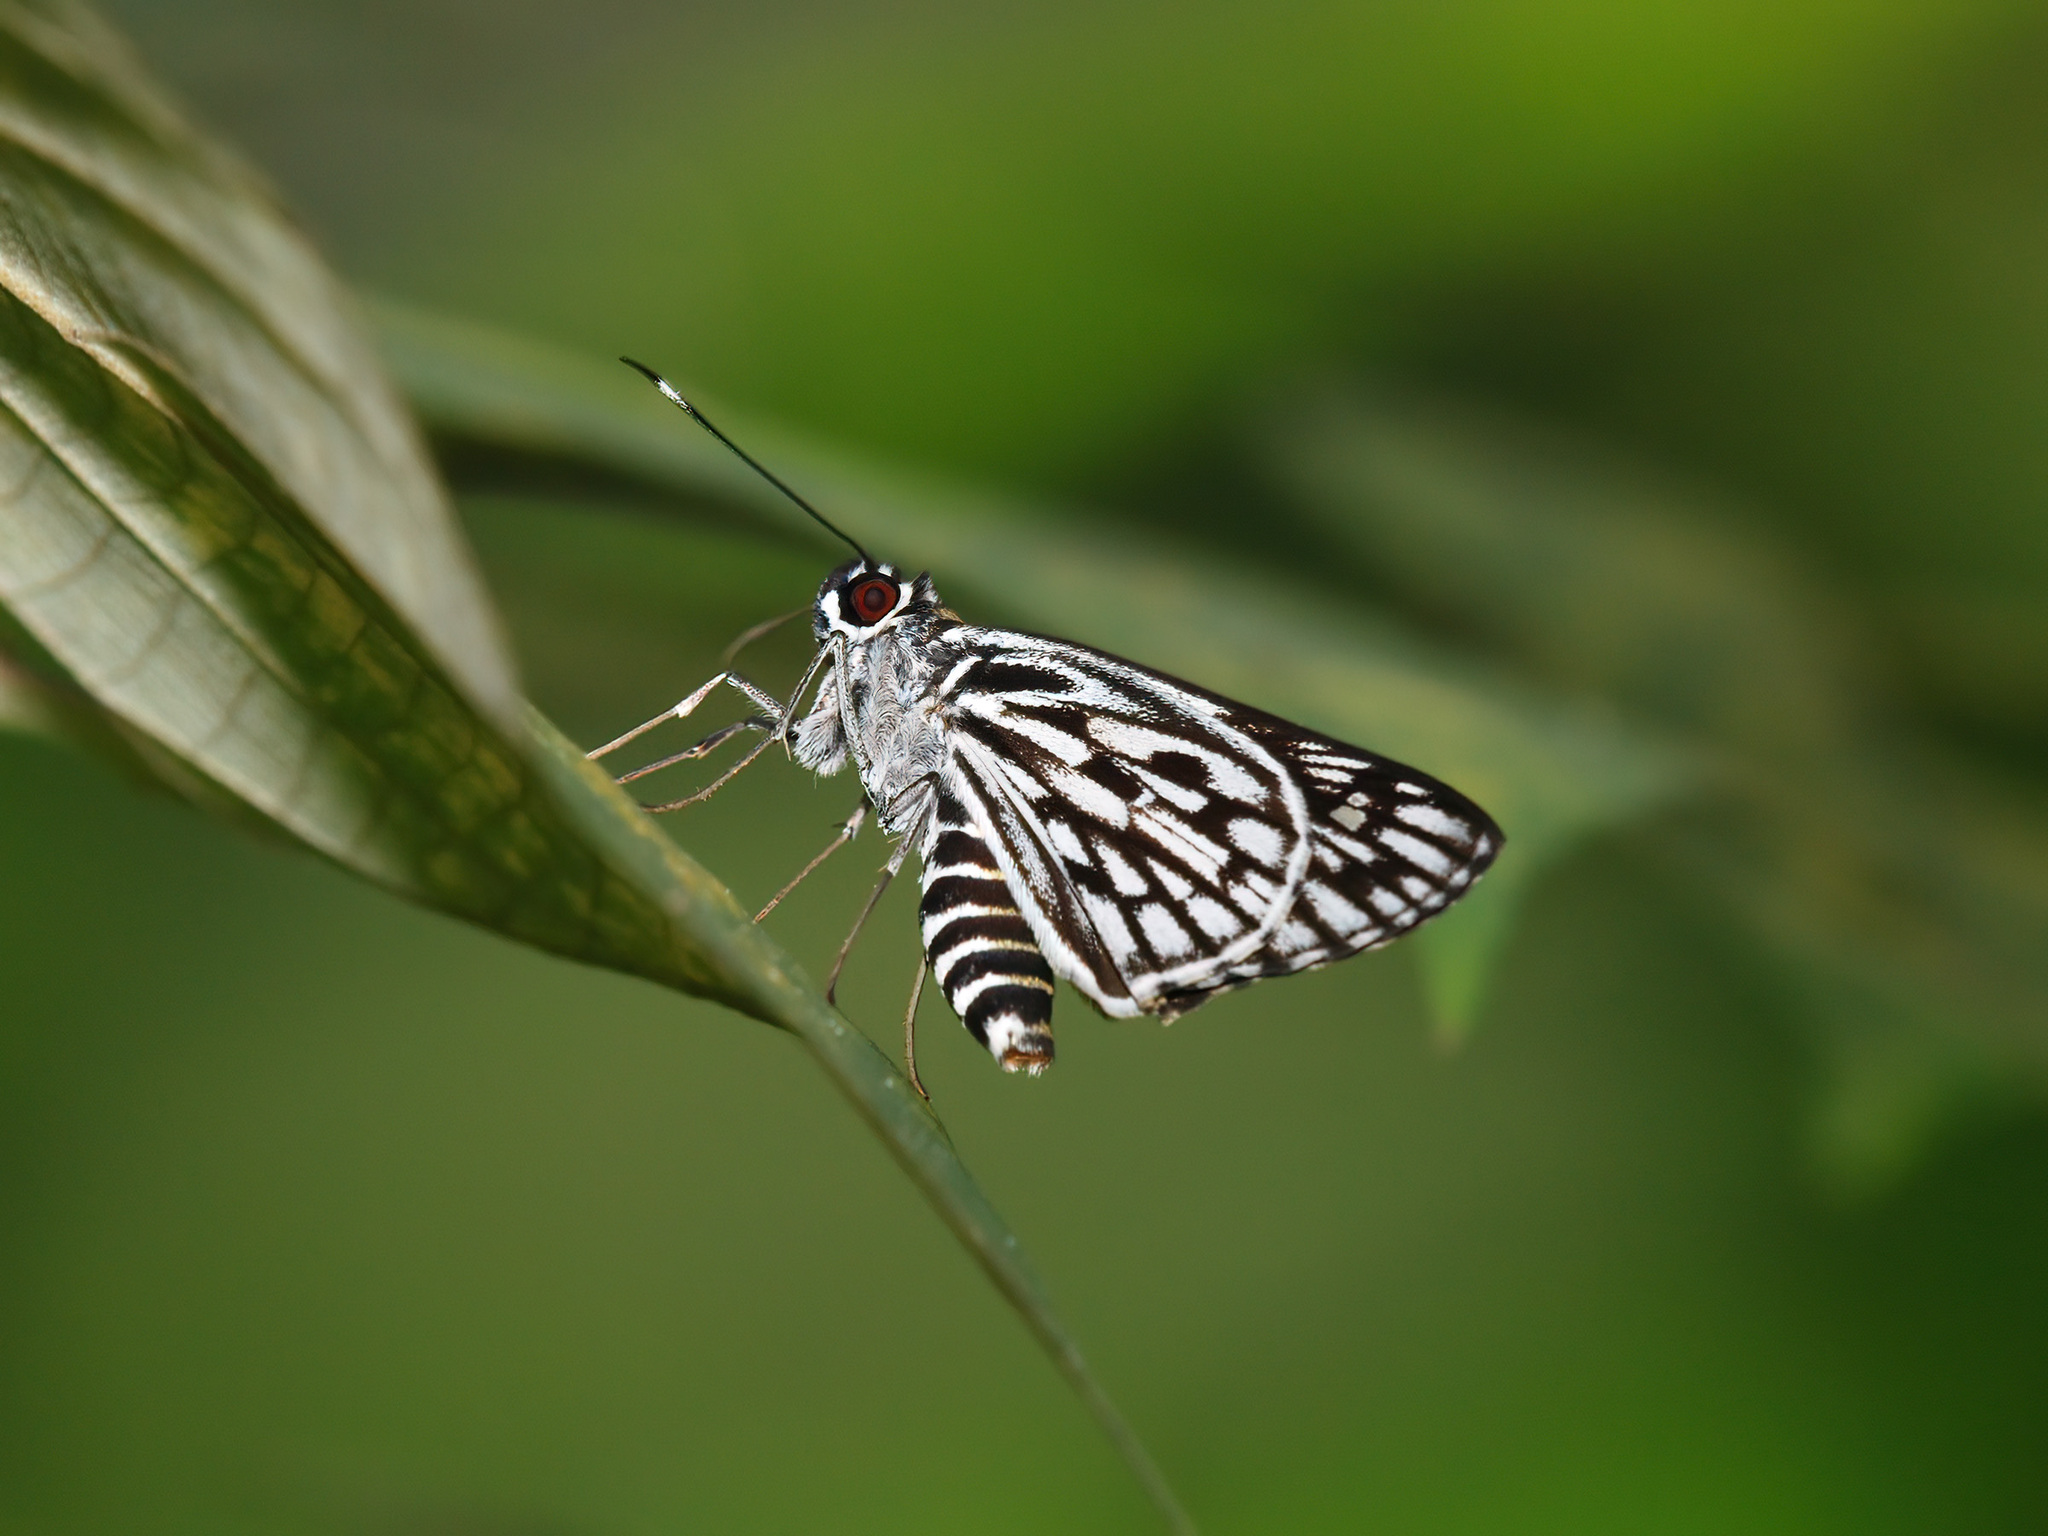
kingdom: Animalia
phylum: Arthropoda
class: Insecta
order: Lepidoptera
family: Hesperiidae
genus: Plastingia
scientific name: Plastingia naga
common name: Chequered lancer
